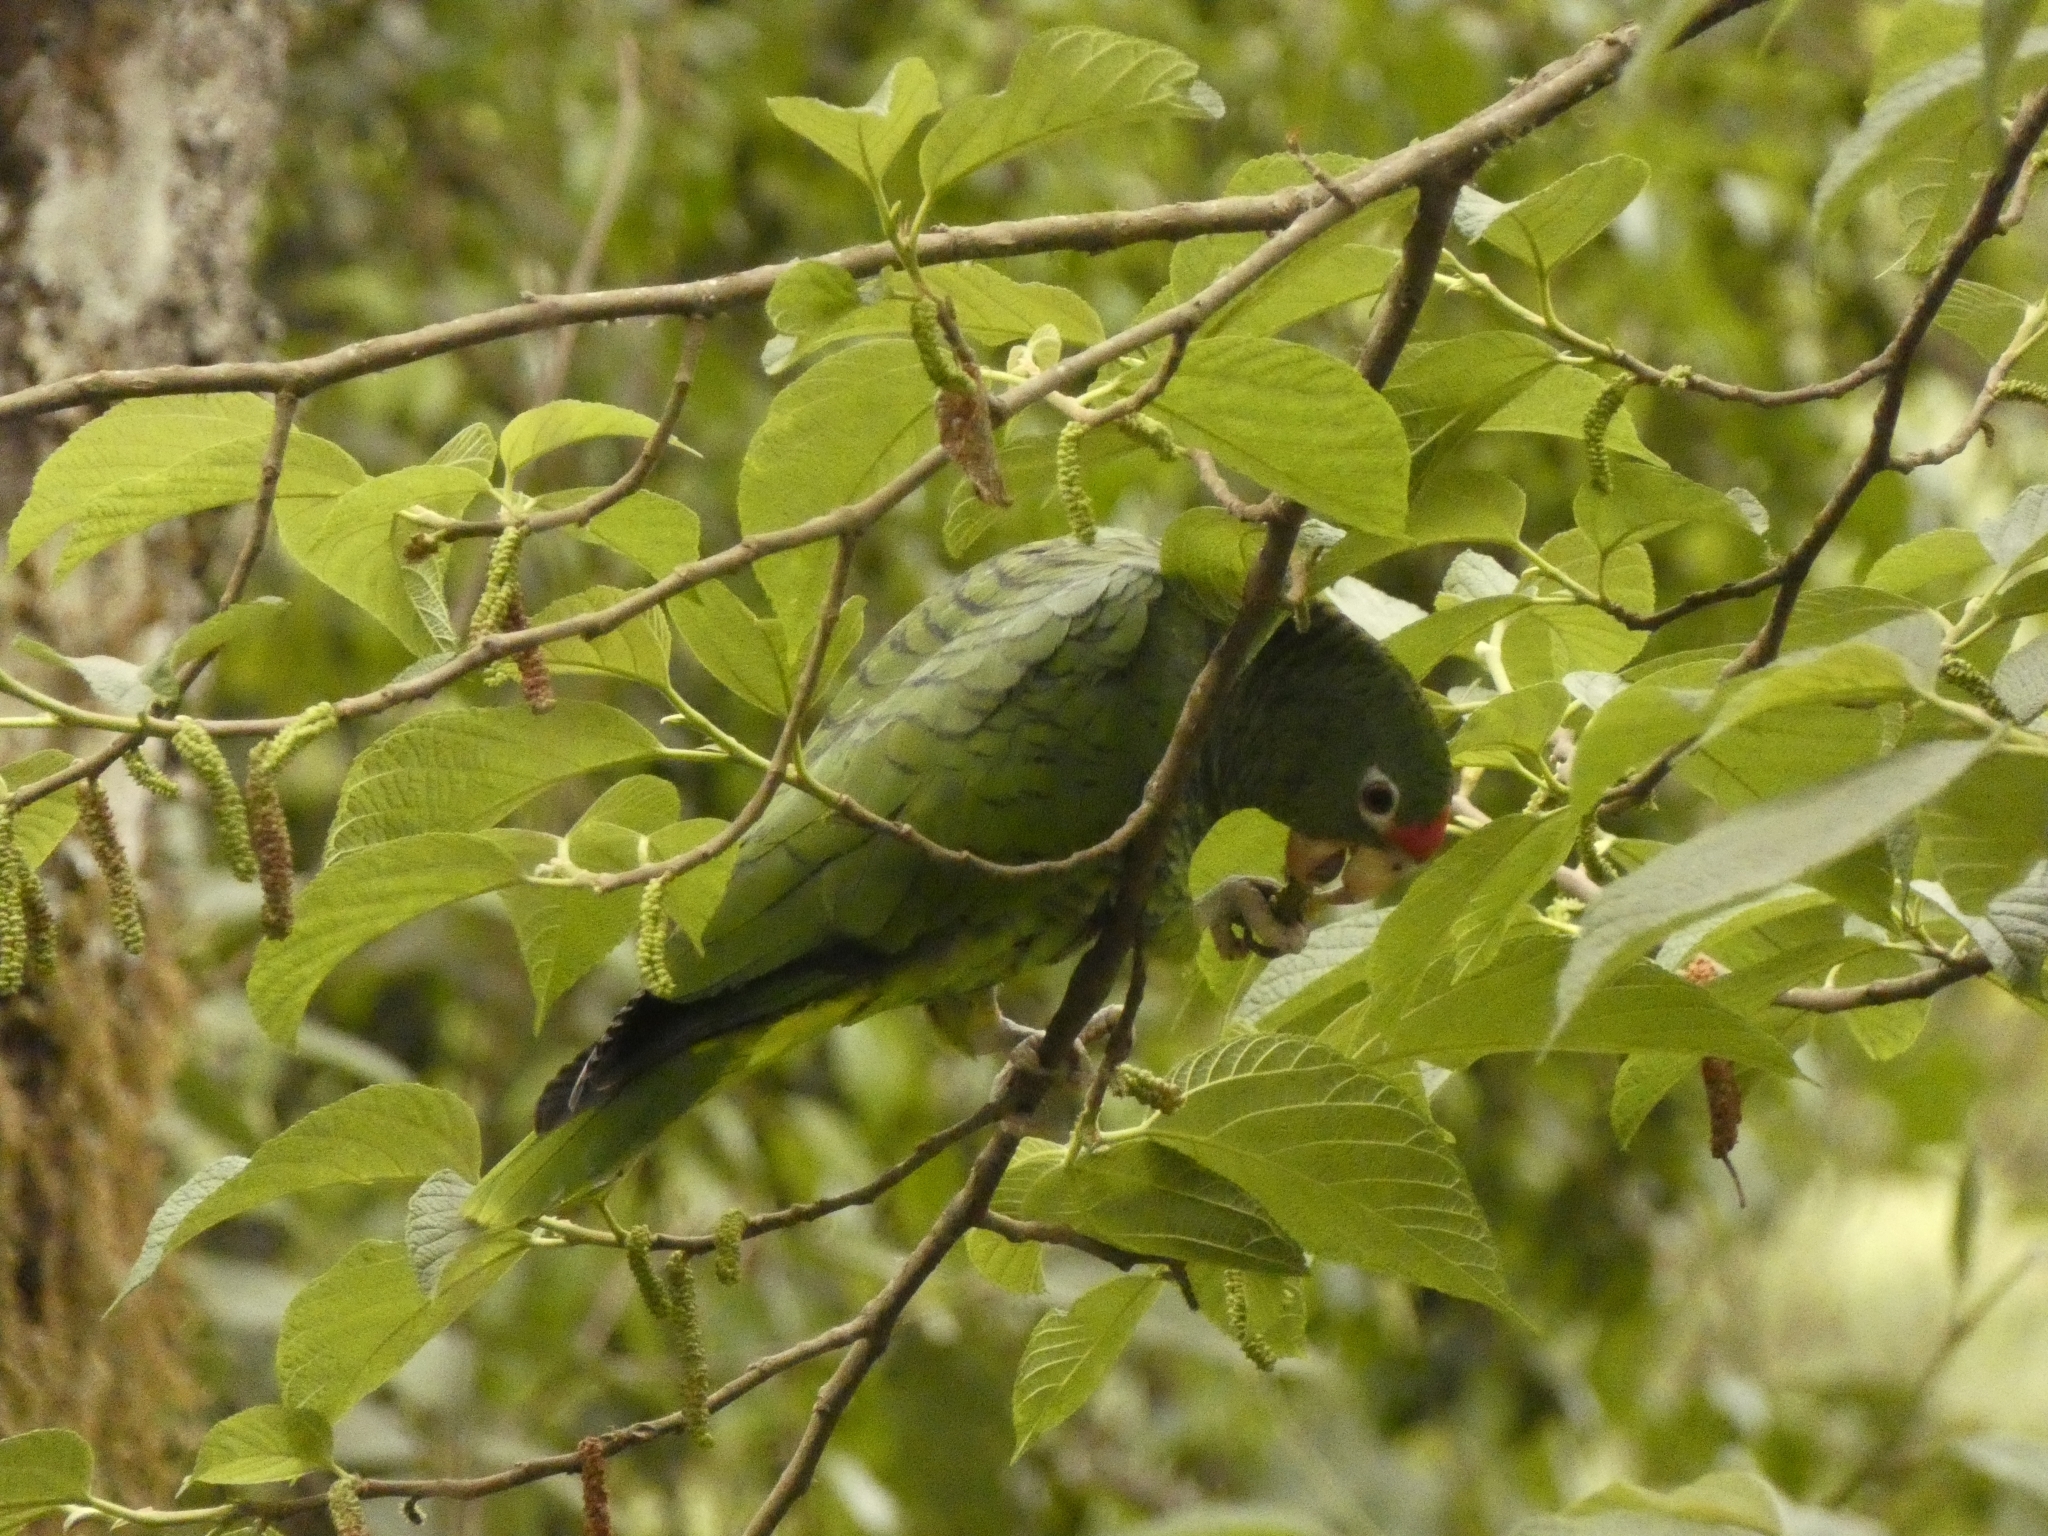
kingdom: Animalia
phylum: Chordata
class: Aves
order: Psittaciformes
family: Psittacidae
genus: Amazona
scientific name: Amazona tucumana
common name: Tucuman amazon
